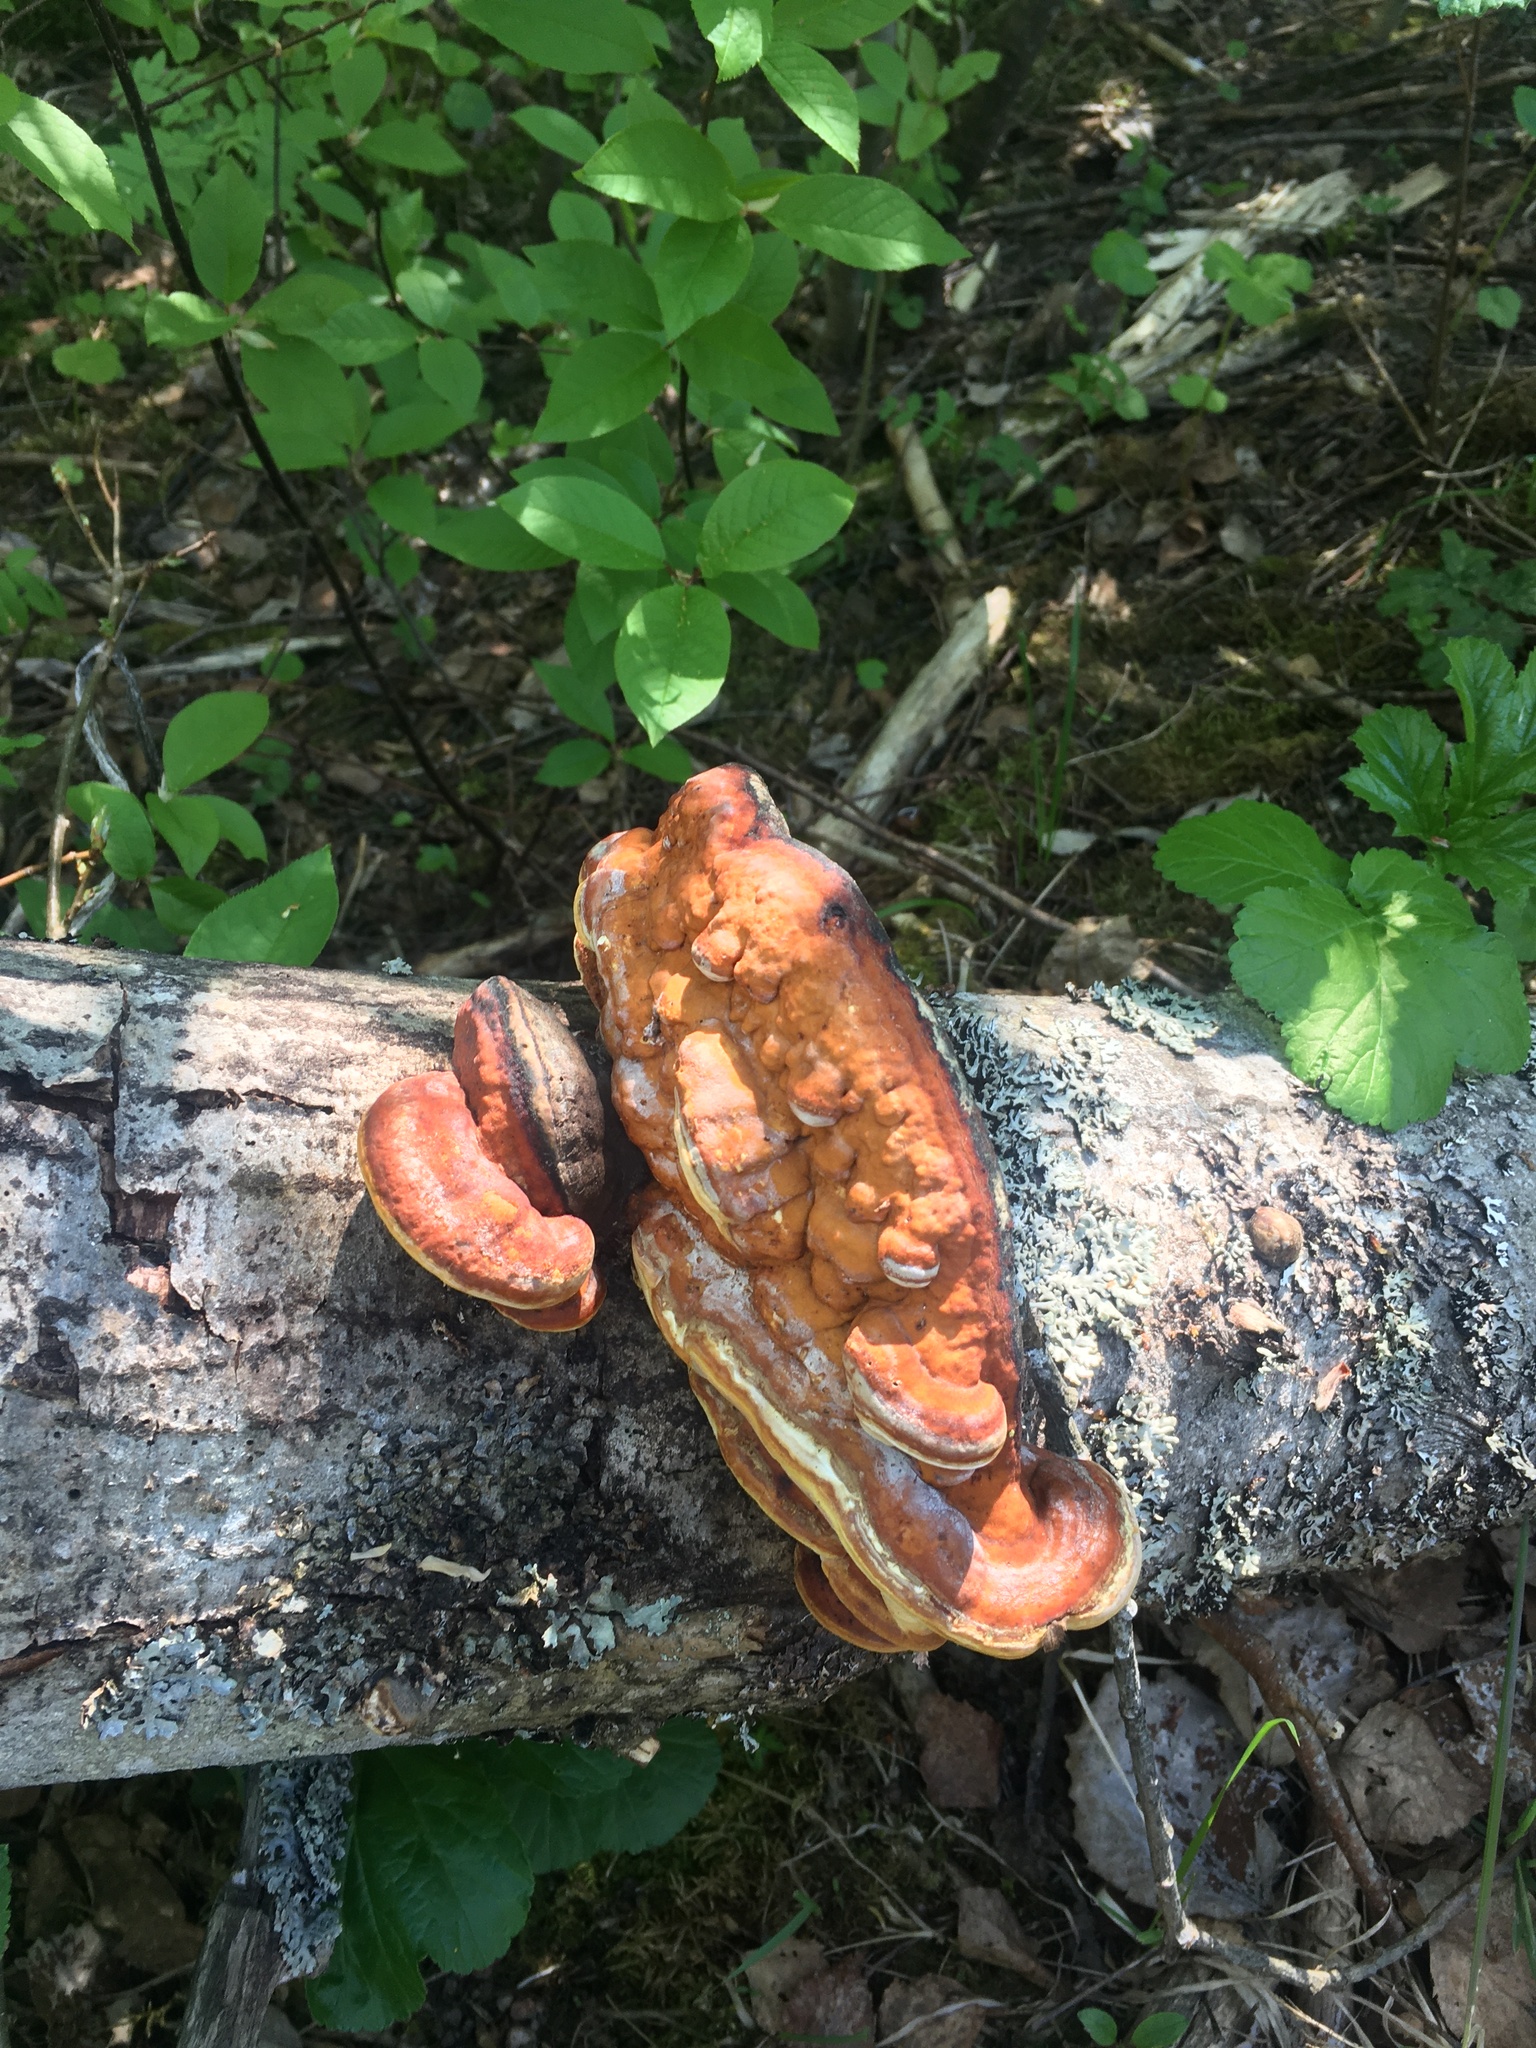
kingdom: Fungi
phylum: Basidiomycota
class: Agaricomycetes
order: Polyporales
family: Fomitopsidaceae
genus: Fomitopsis
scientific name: Fomitopsis pinicola
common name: Red-belted bracket
